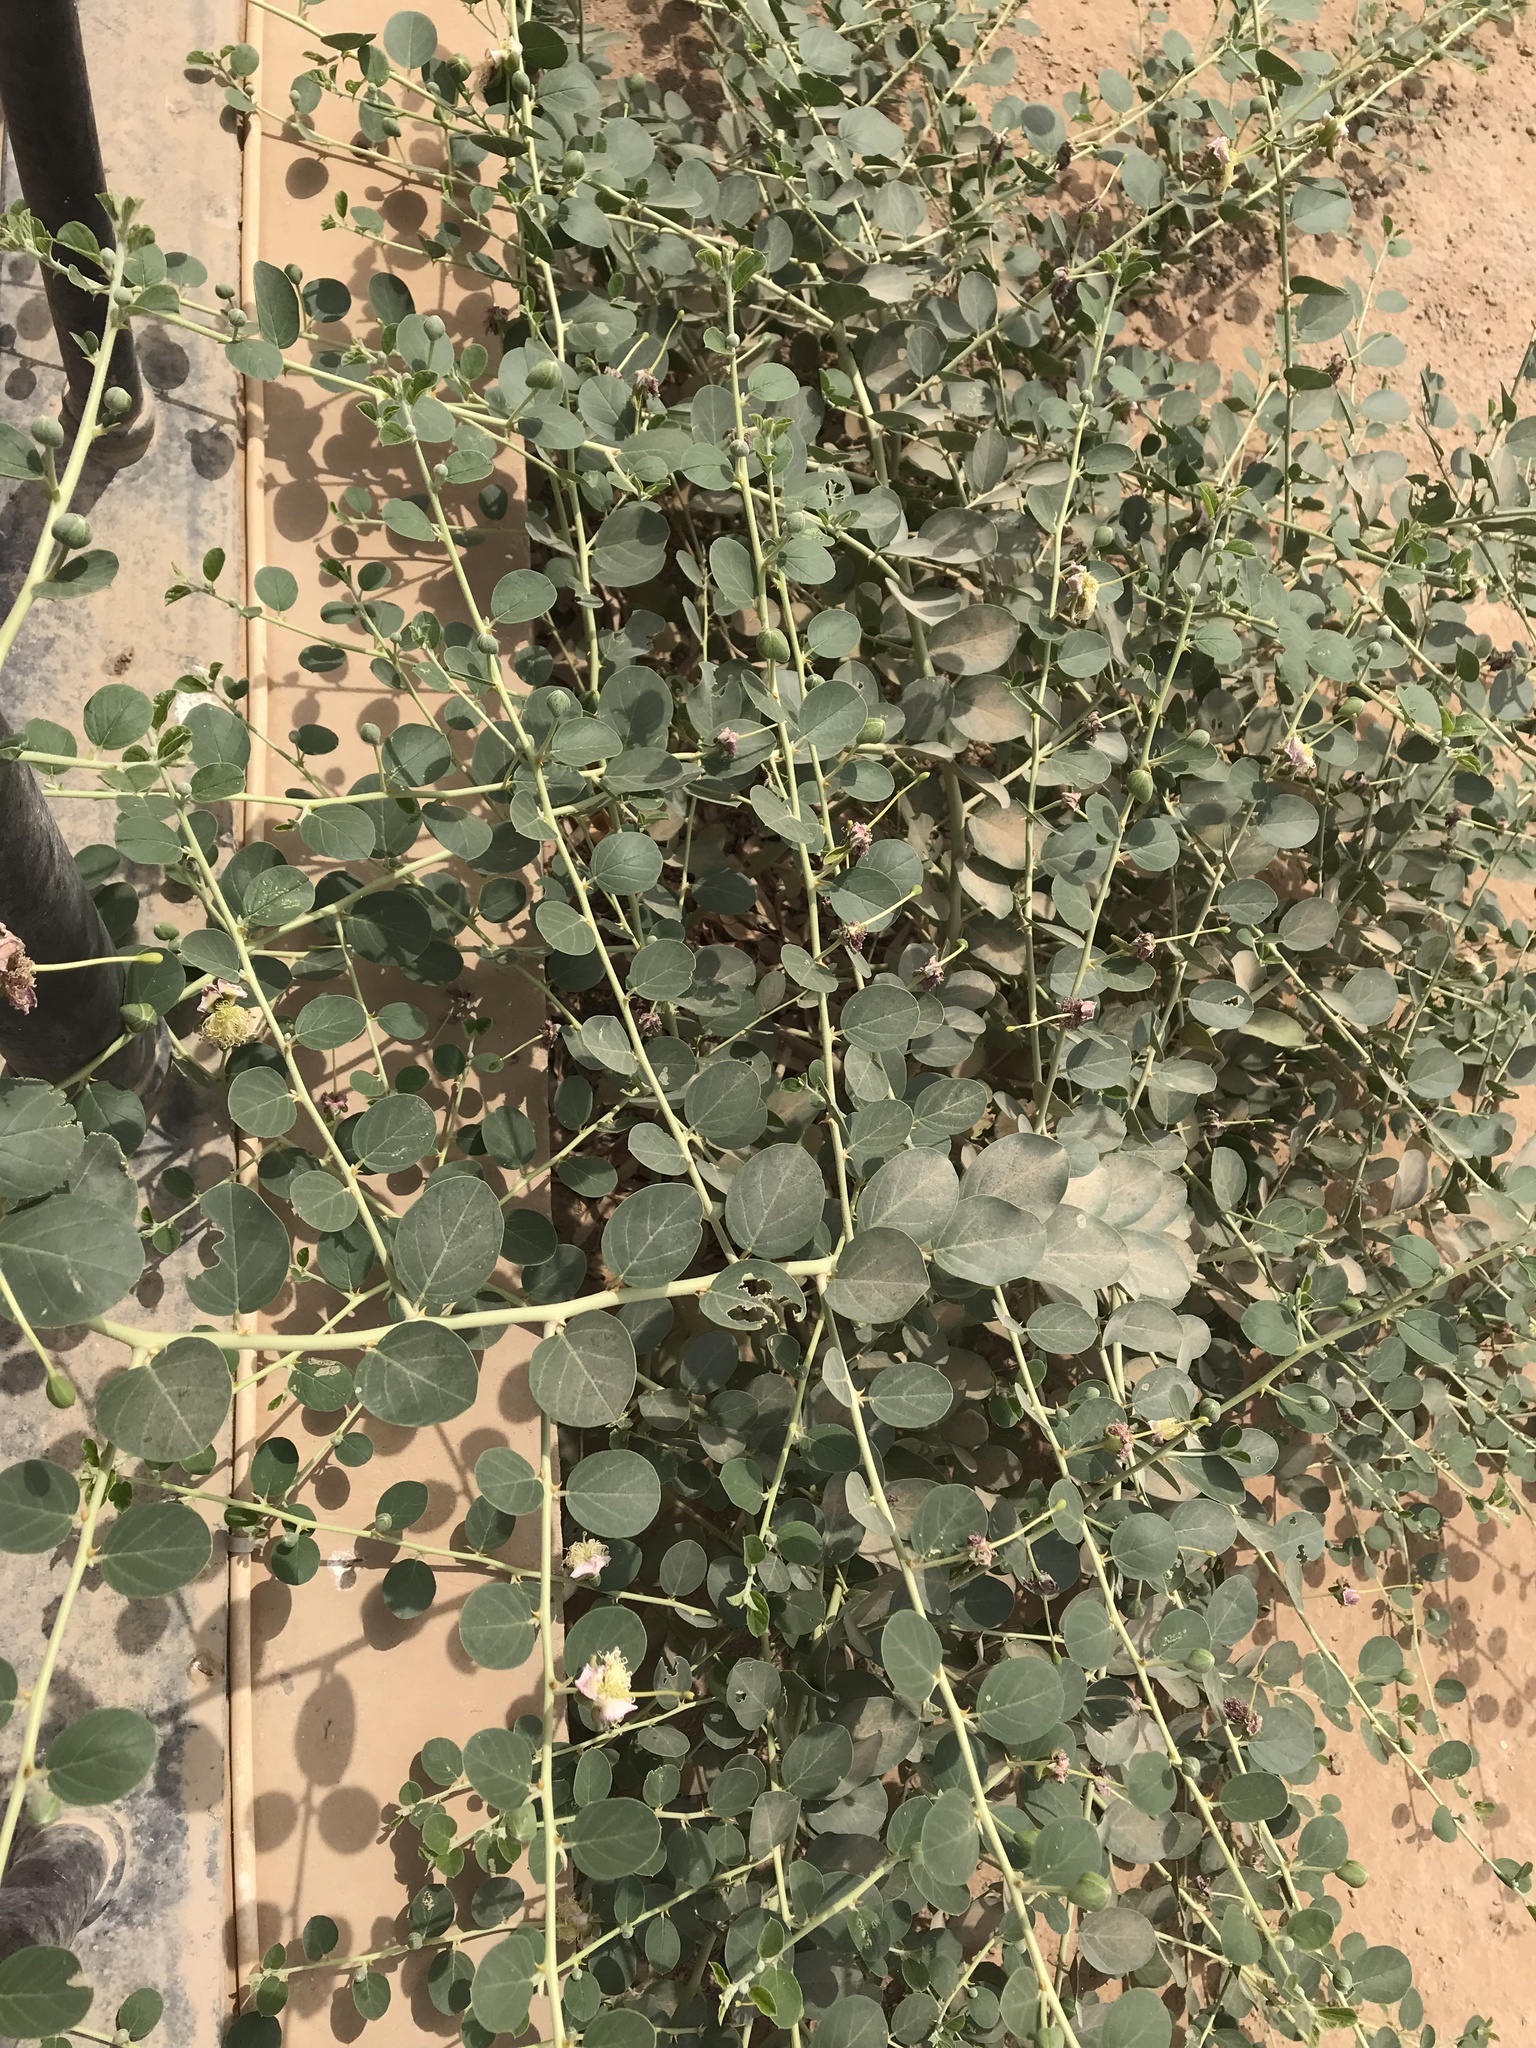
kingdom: Plantae
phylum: Tracheophyta
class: Magnoliopsida
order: Brassicales
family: Capparaceae
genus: Capparis
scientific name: Capparis spinosa
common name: Caper
